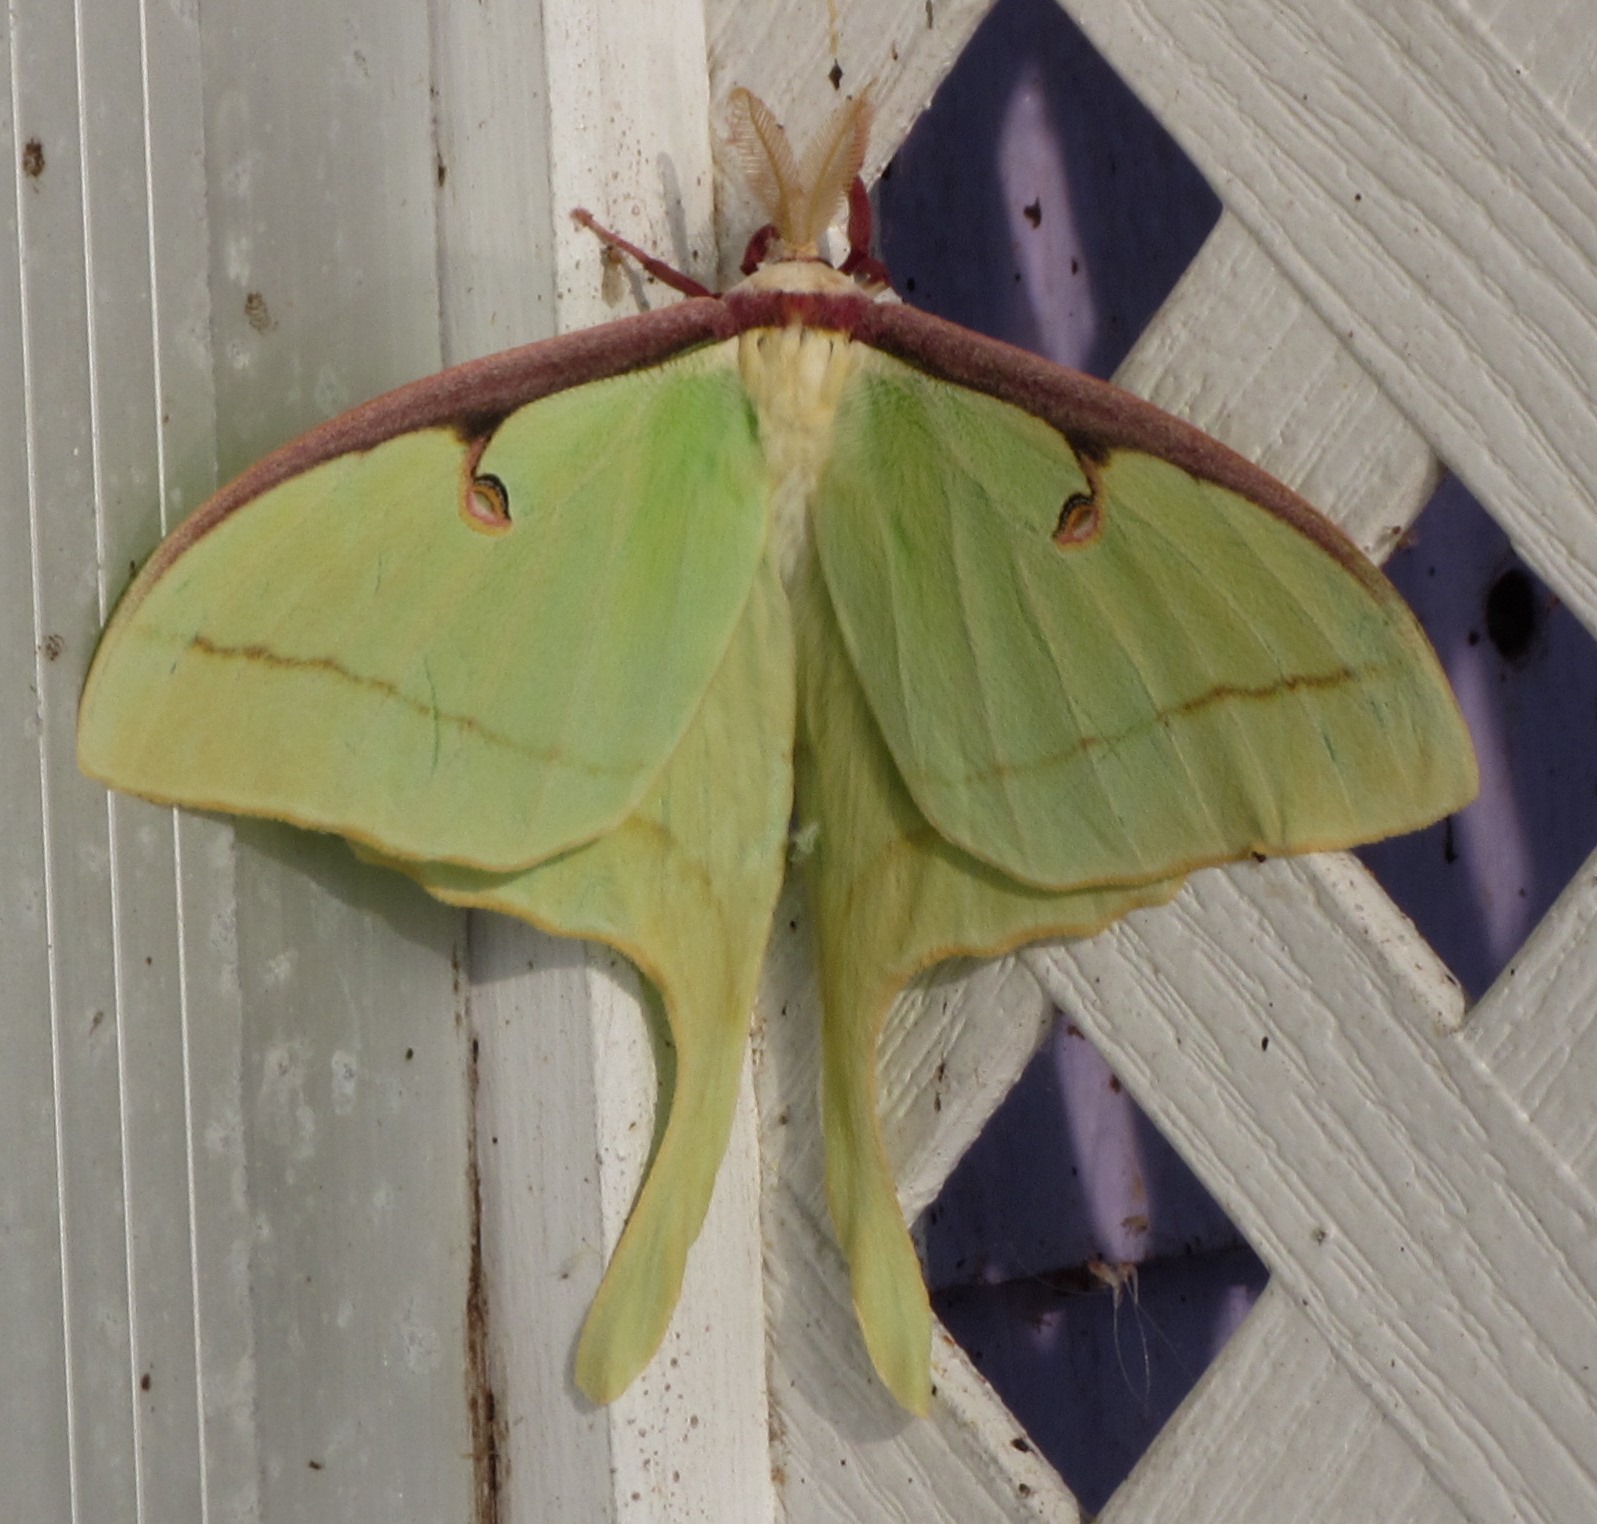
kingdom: Animalia
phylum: Arthropoda
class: Insecta
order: Lepidoptera
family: Saturniidae
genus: Actias
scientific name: Actias luna
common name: Luna moth
